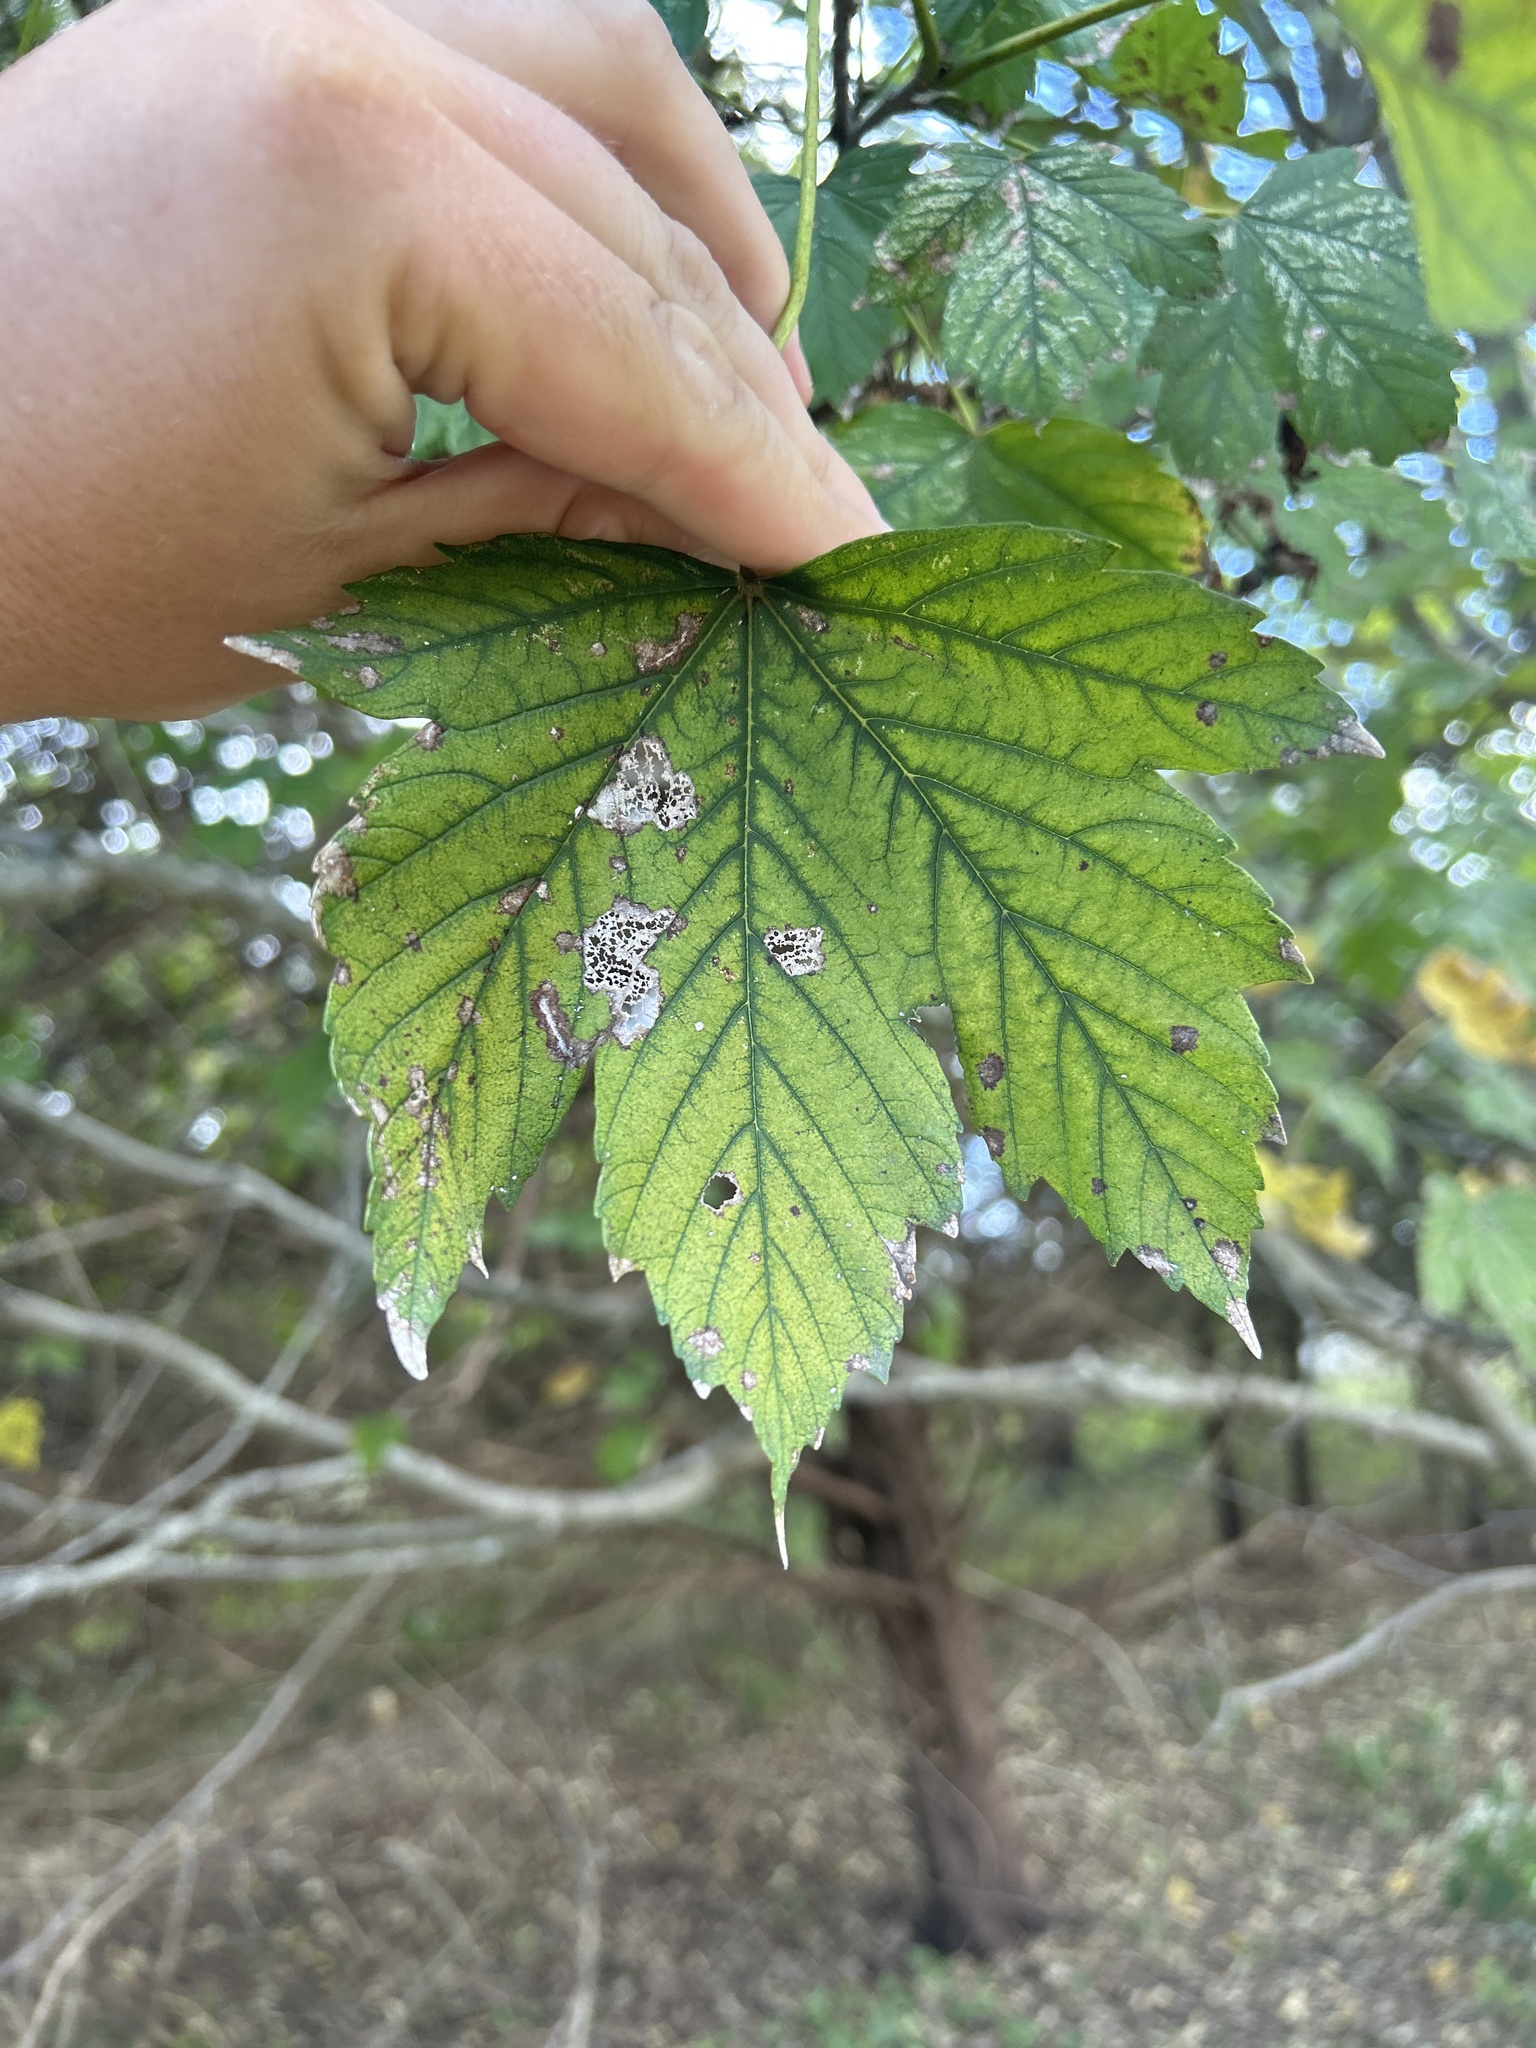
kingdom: Plantae
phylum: Tracheophyta
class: Magnoliopsida
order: Sapindales
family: Sapindaceae
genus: Acer
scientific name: Acer pseudoplatanus
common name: Sycamore
